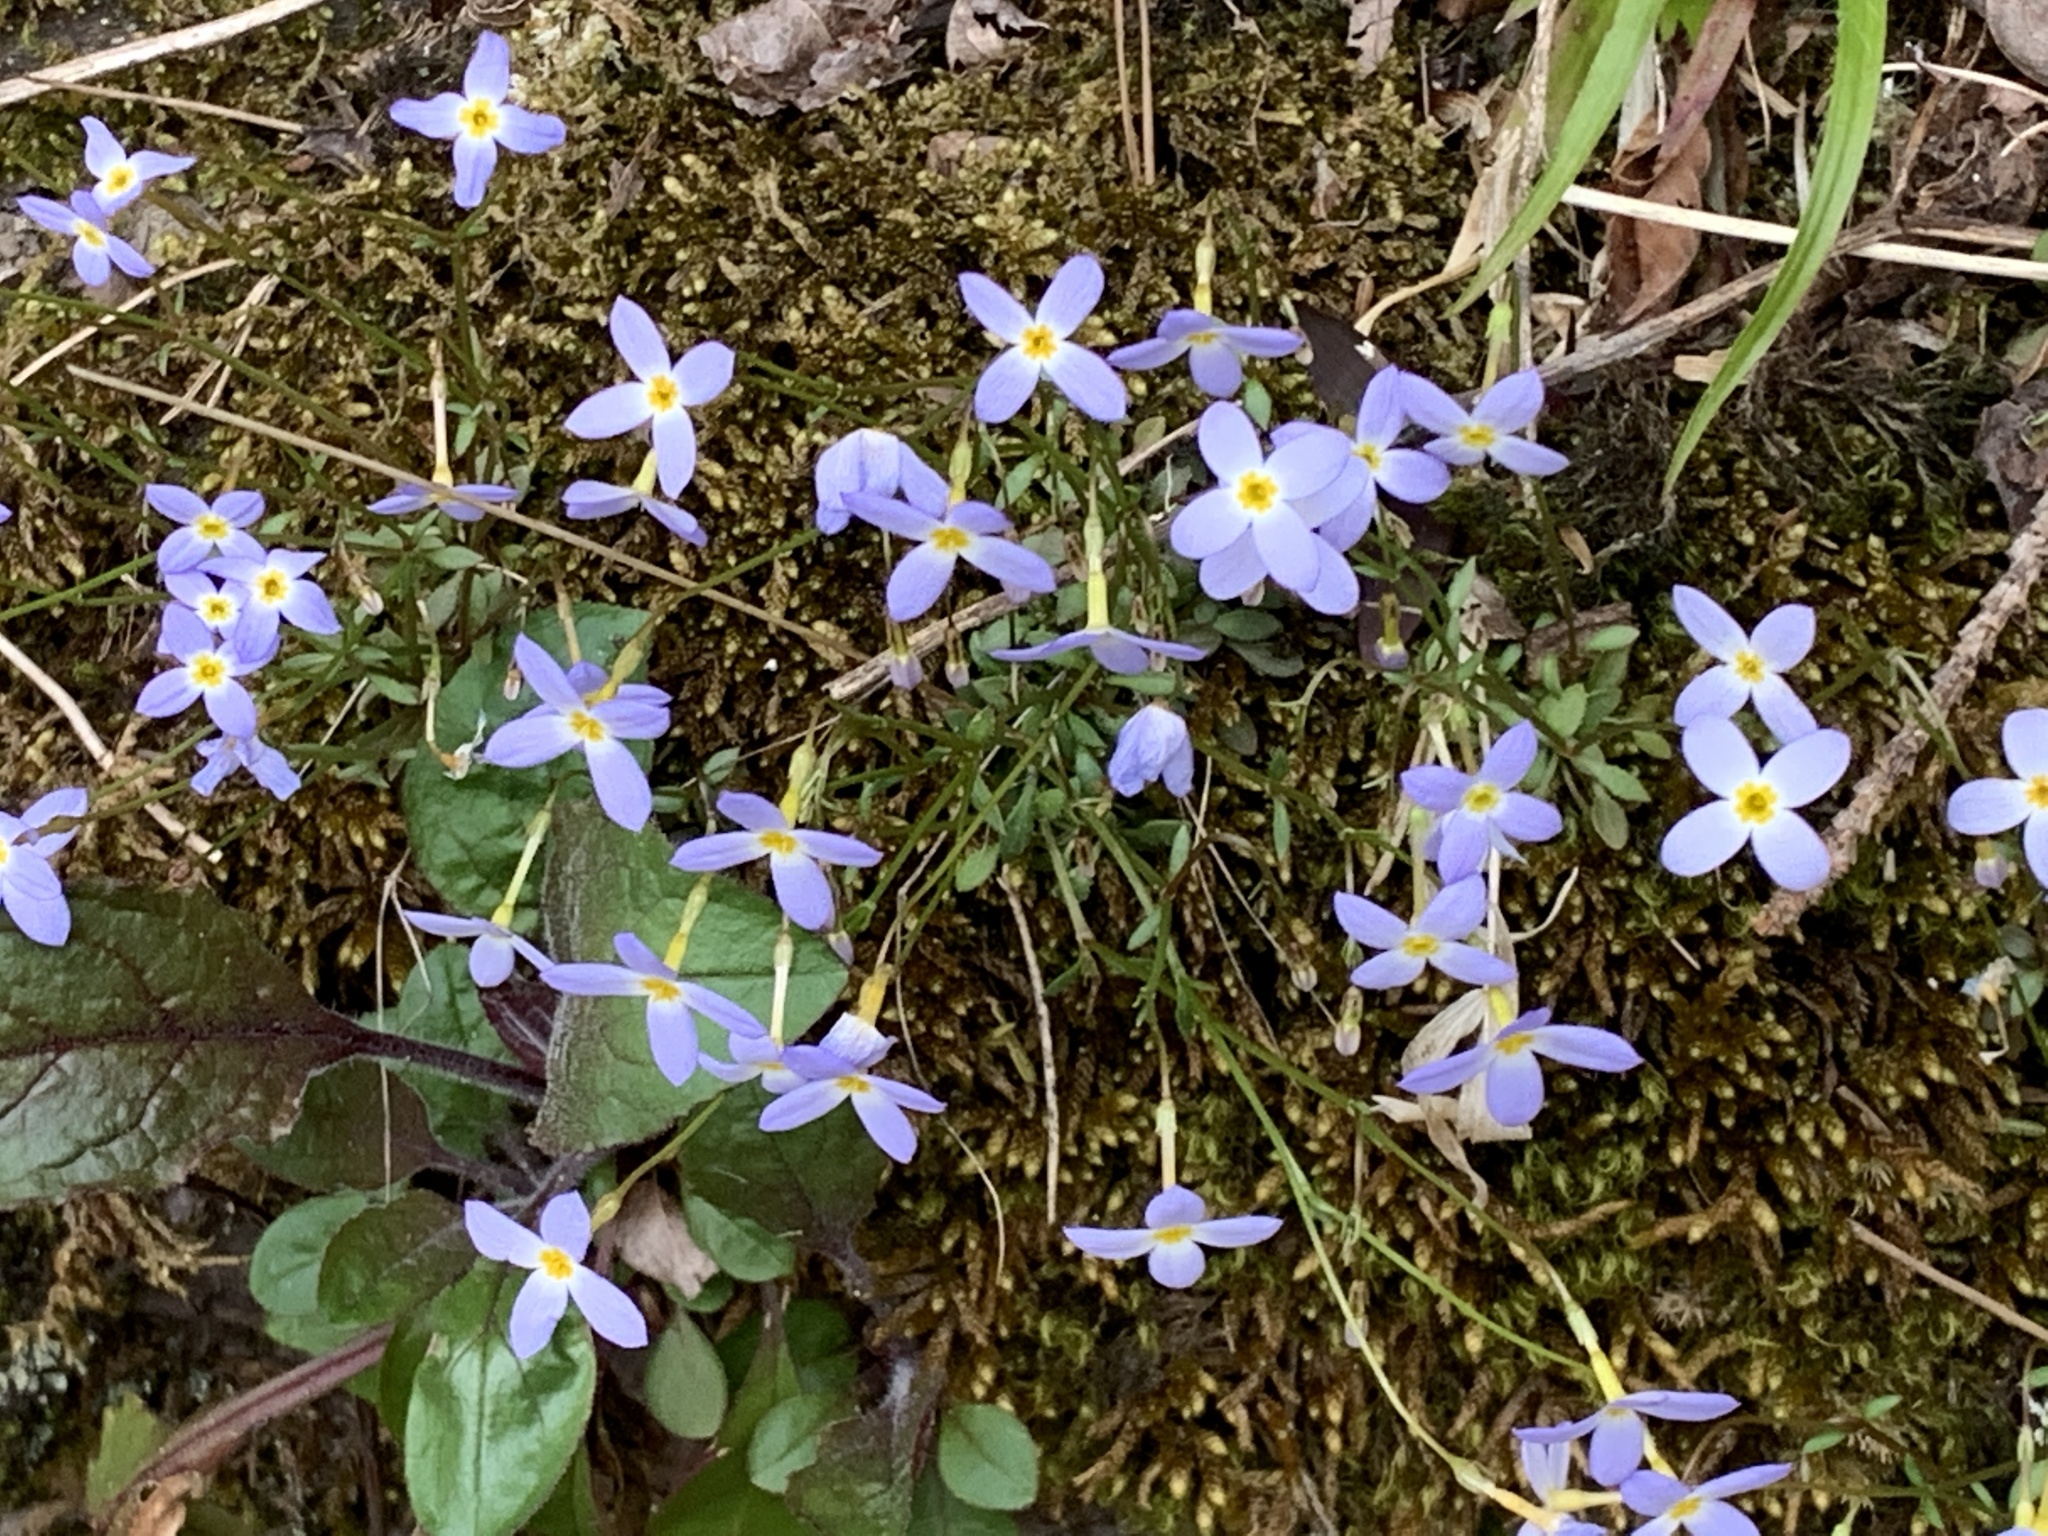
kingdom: Plantae
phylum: Tracheophyta
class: Magnoliopsida
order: Gentianales
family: Rubiaceae
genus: Houstonia
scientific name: Houstonia caerulea
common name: Bluets
